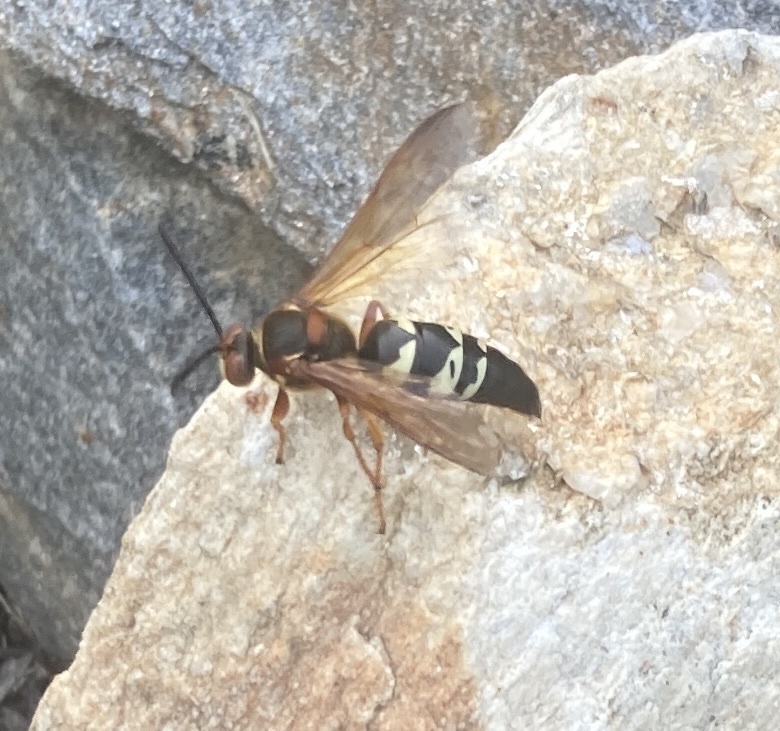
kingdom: Animalia
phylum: Arthropoda
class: Insecta
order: Hymenoptera
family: Crabronidae
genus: Sphecius
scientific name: Sphecius speciosus
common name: Cicada killer
